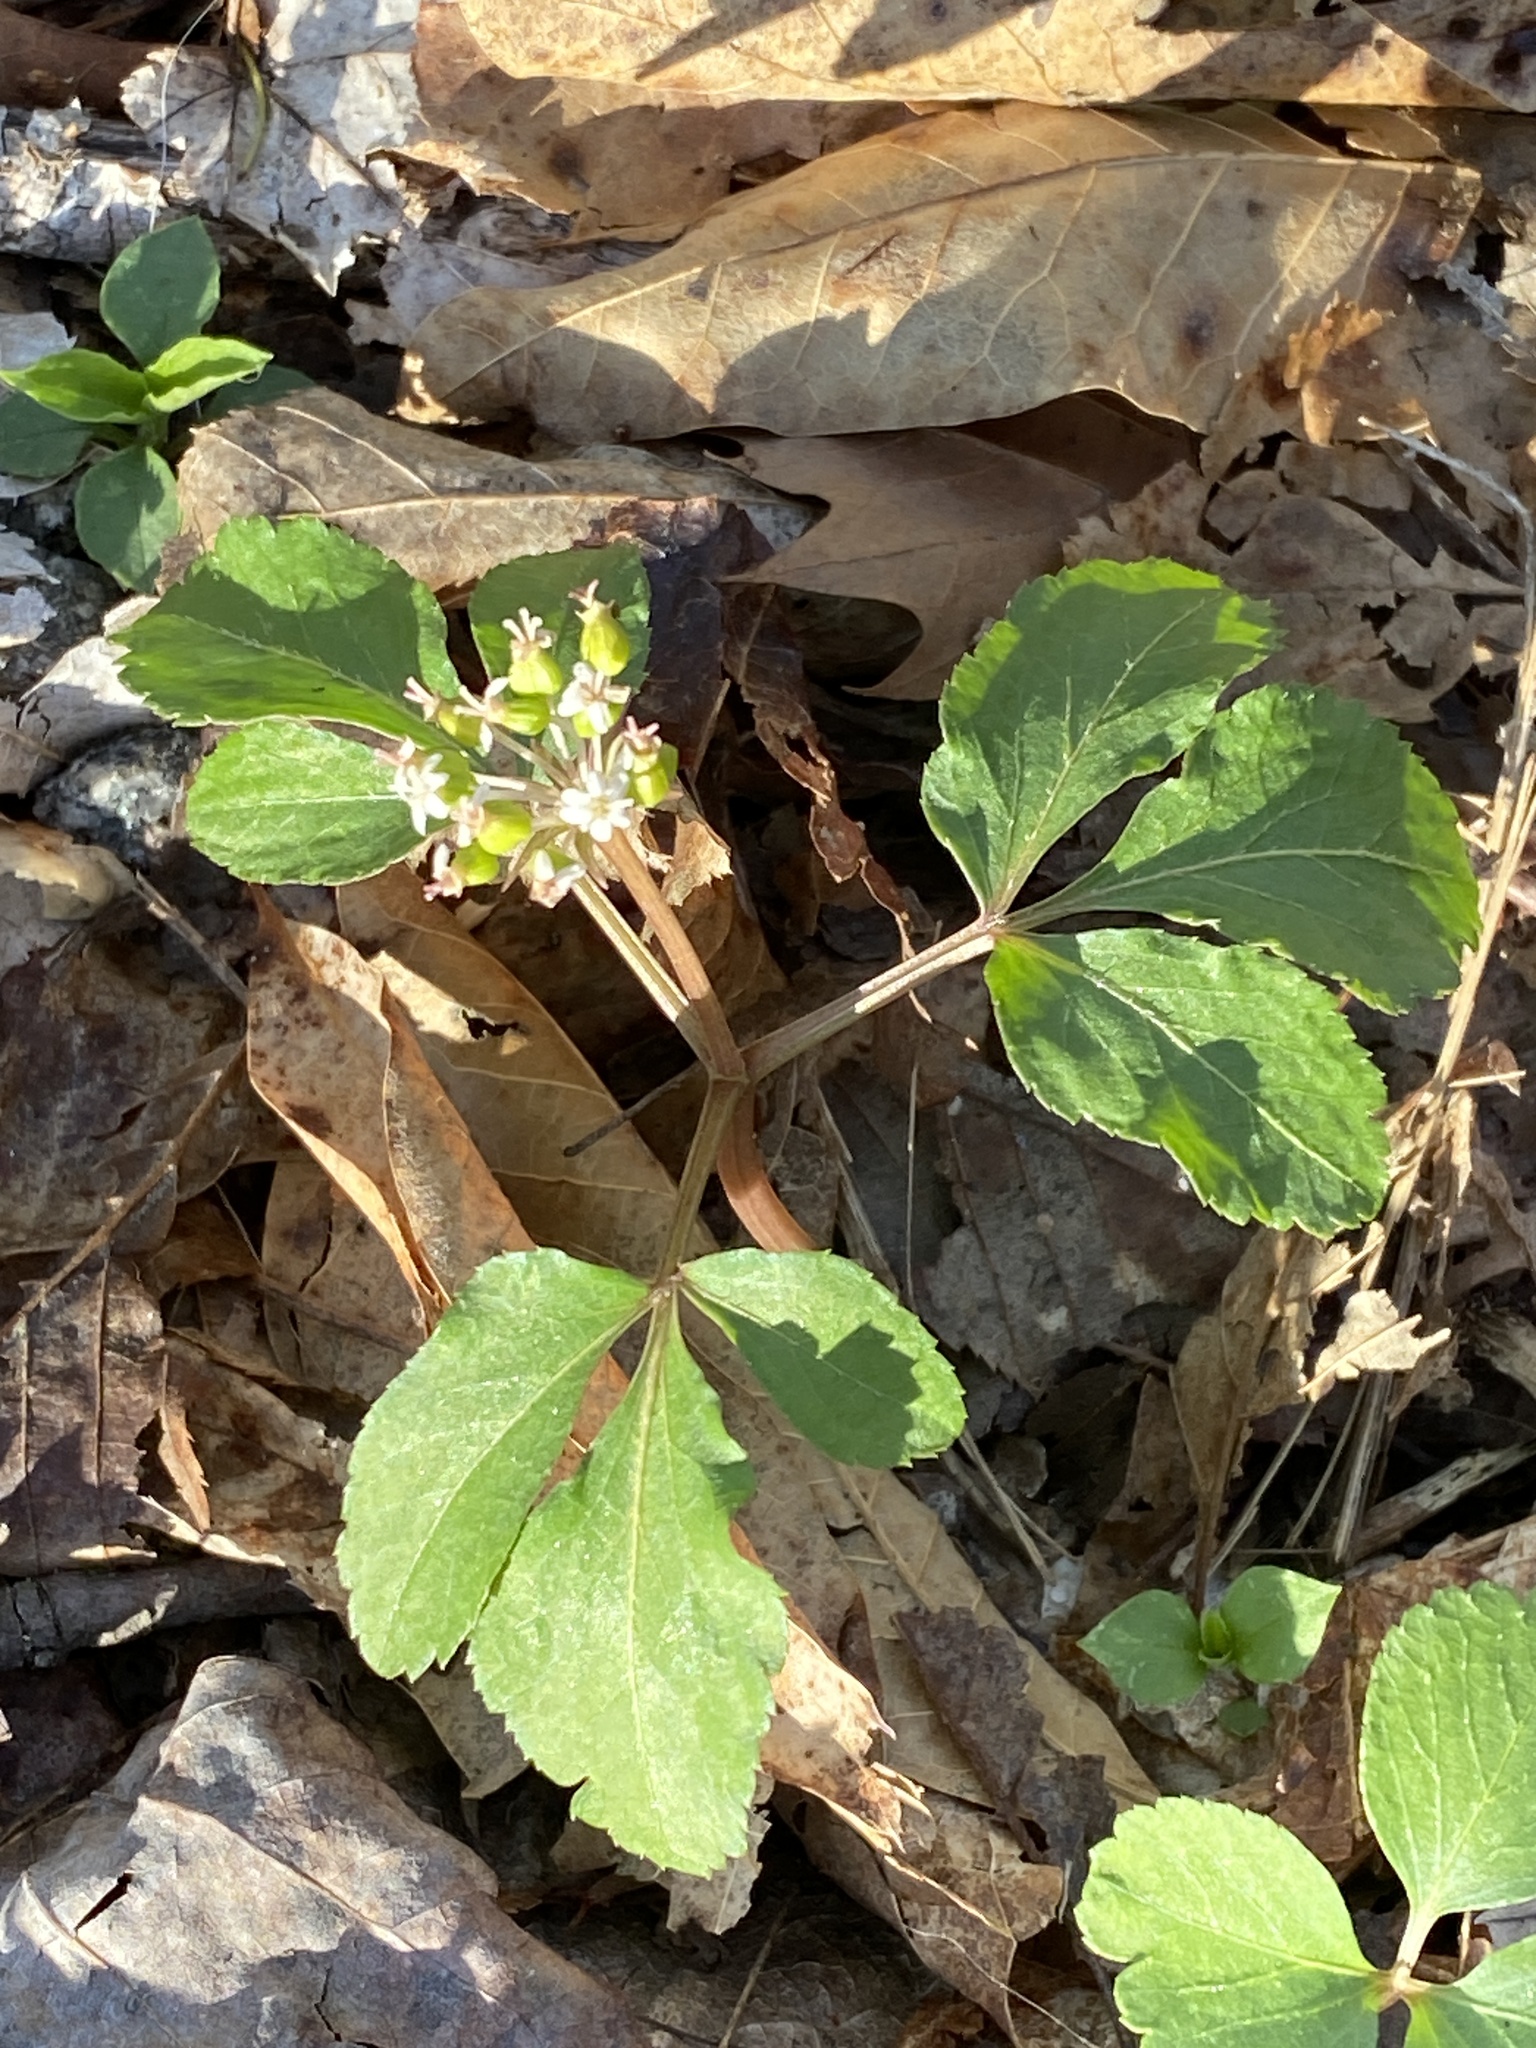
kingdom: Plantae
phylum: Tracheophyta
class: Magnoliopsida
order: Apiales
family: Araliaceae
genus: Panax
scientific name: Panax trifolius
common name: Dwarf ginseng
